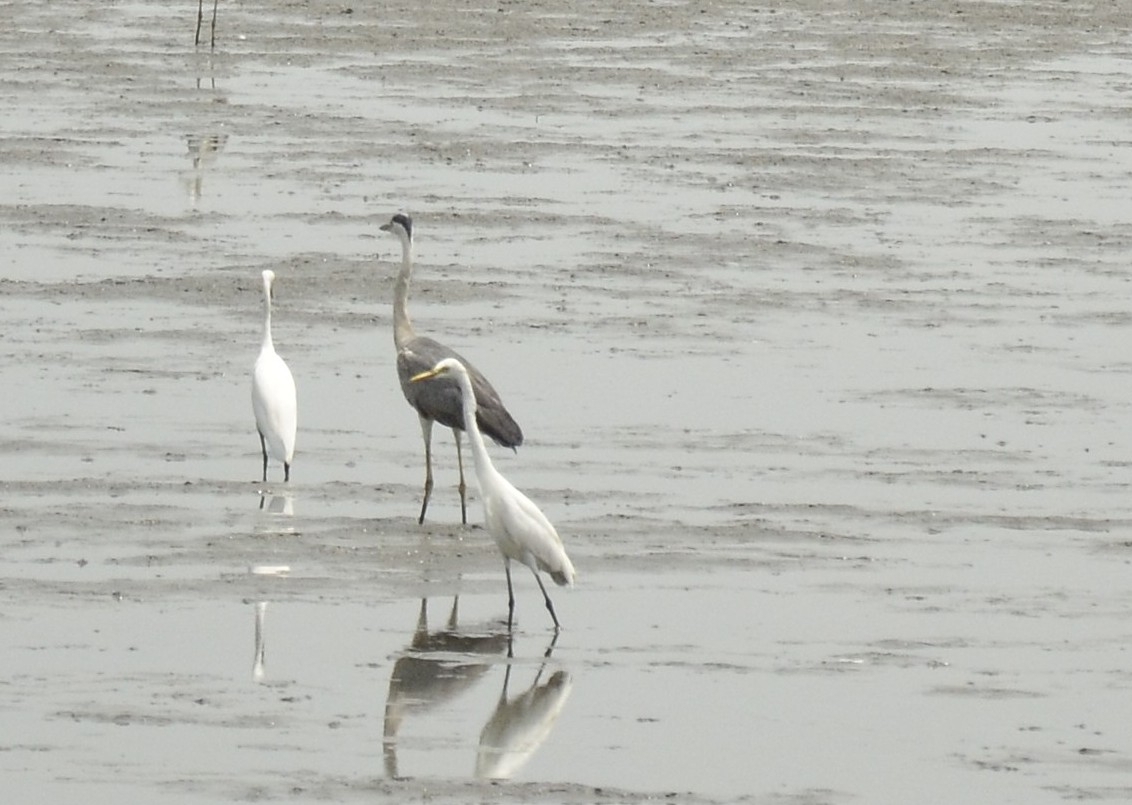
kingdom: Animalia
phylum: Chordata
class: Aves
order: Pelecaniformes
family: Ardeidae
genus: Ardea
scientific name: Ardea cinerea
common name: Grey heron
